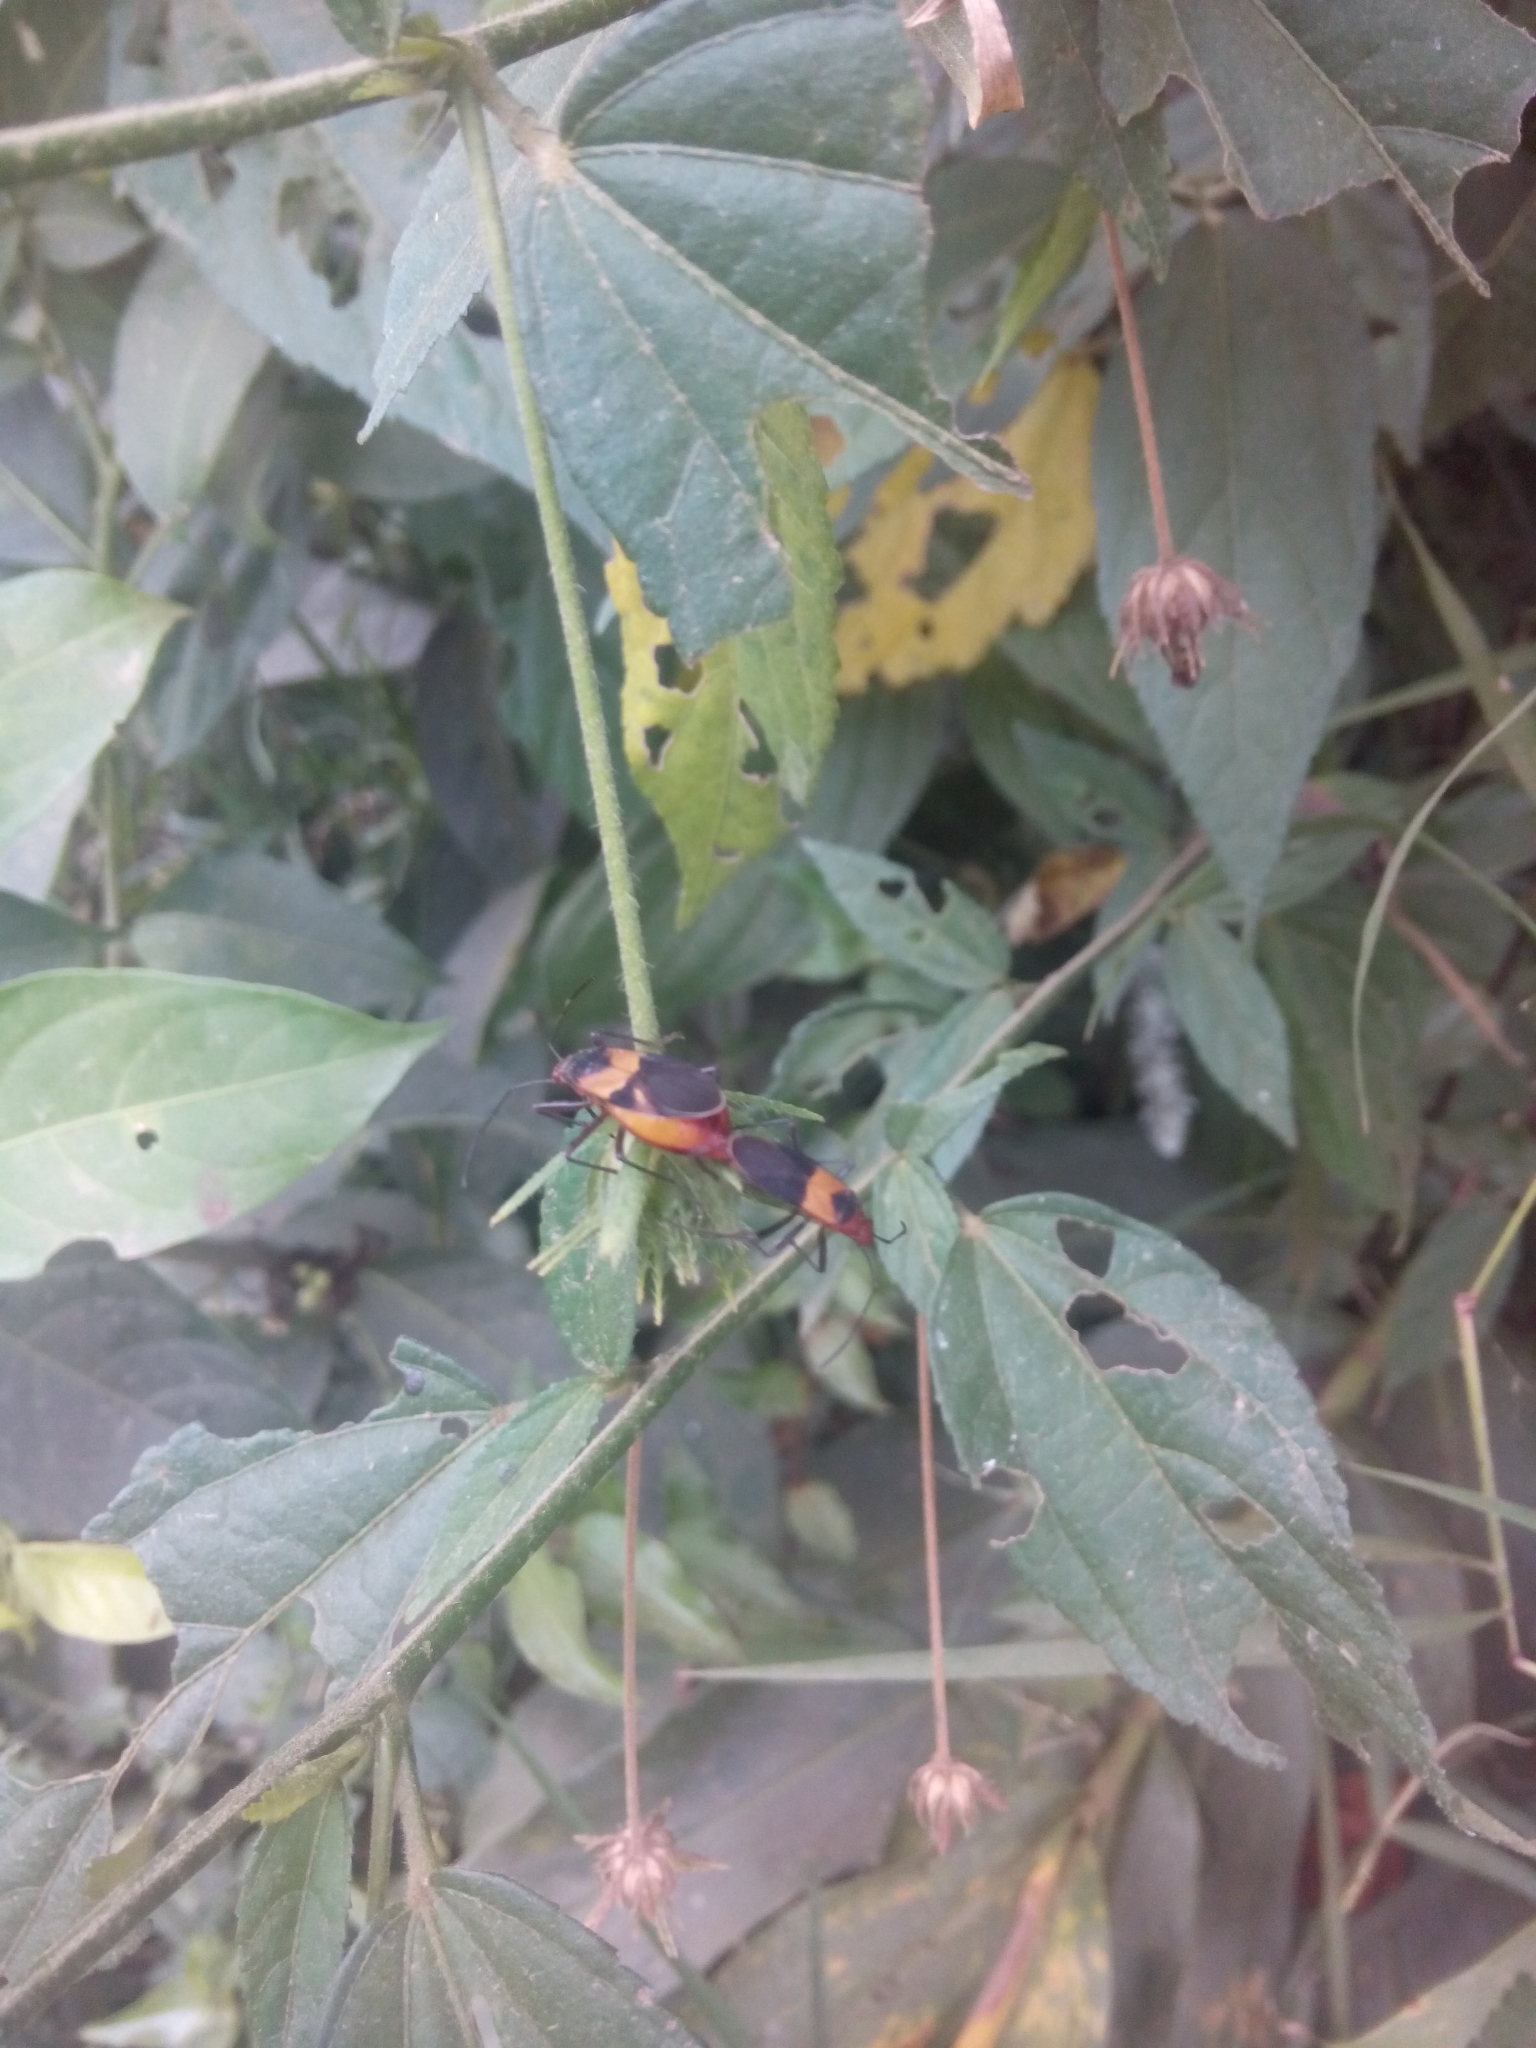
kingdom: Animalia
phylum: Arthropoda
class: Insecta
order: Hemiptera
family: Pyrrhocoridae
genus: Dysdercus
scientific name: Dysdercus
